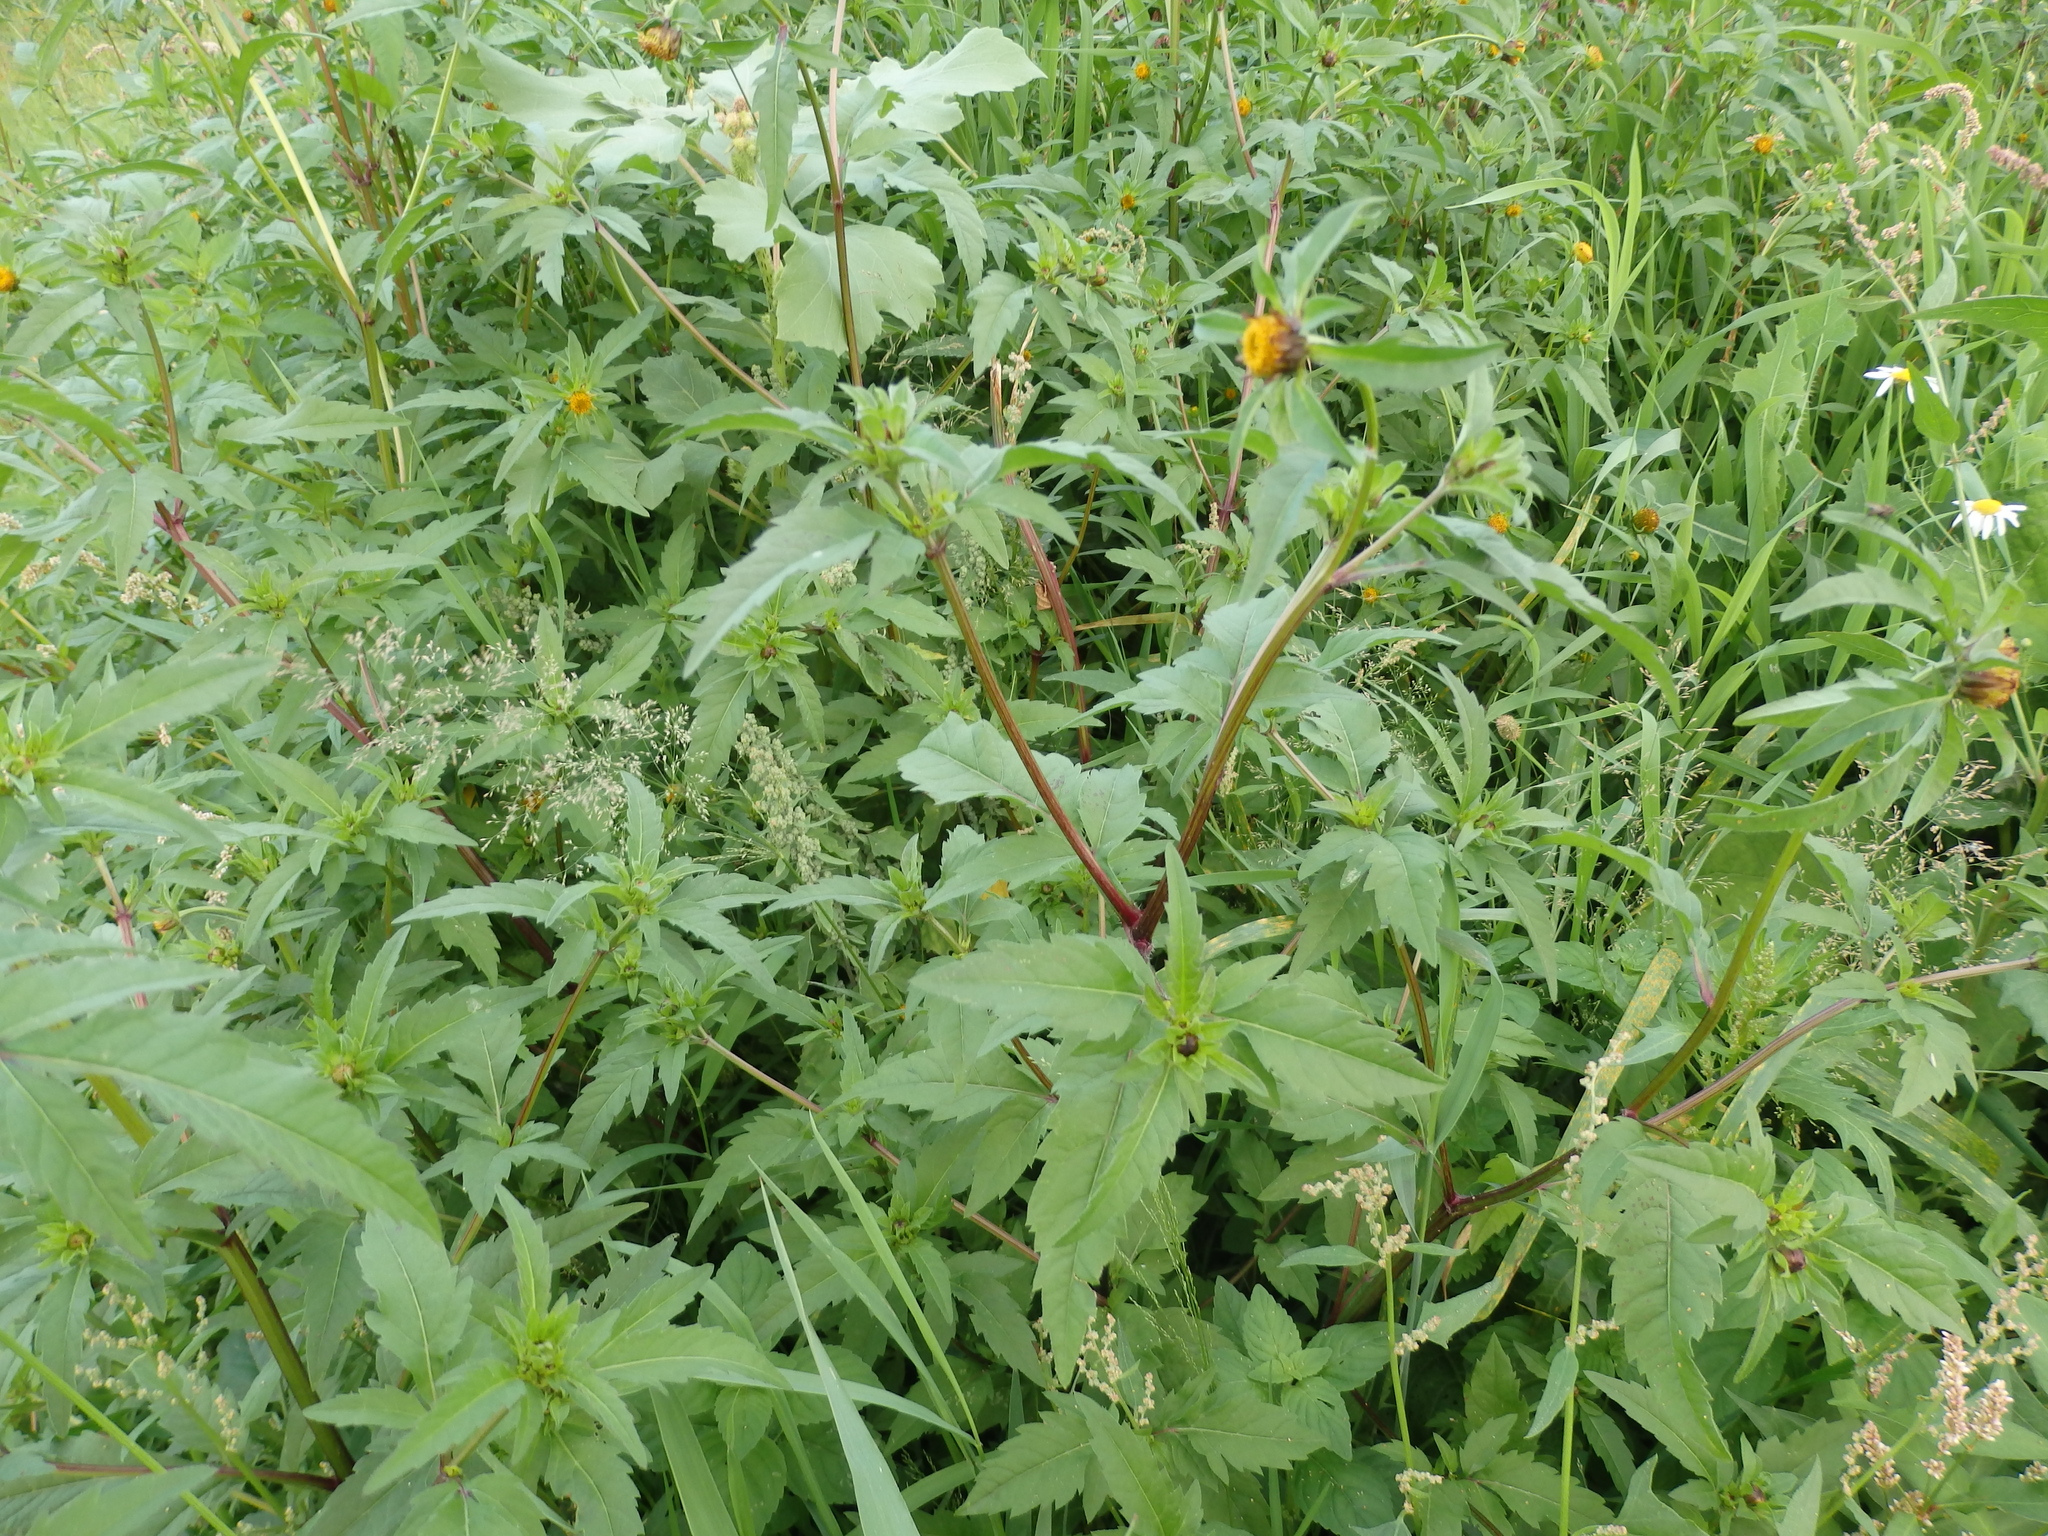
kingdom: Plantae
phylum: Tracheophyta
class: Magnoliopsida
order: Asterales
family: Asteraceae
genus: Bidens
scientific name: Bidens tripartita
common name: Trifid bur-marigold
